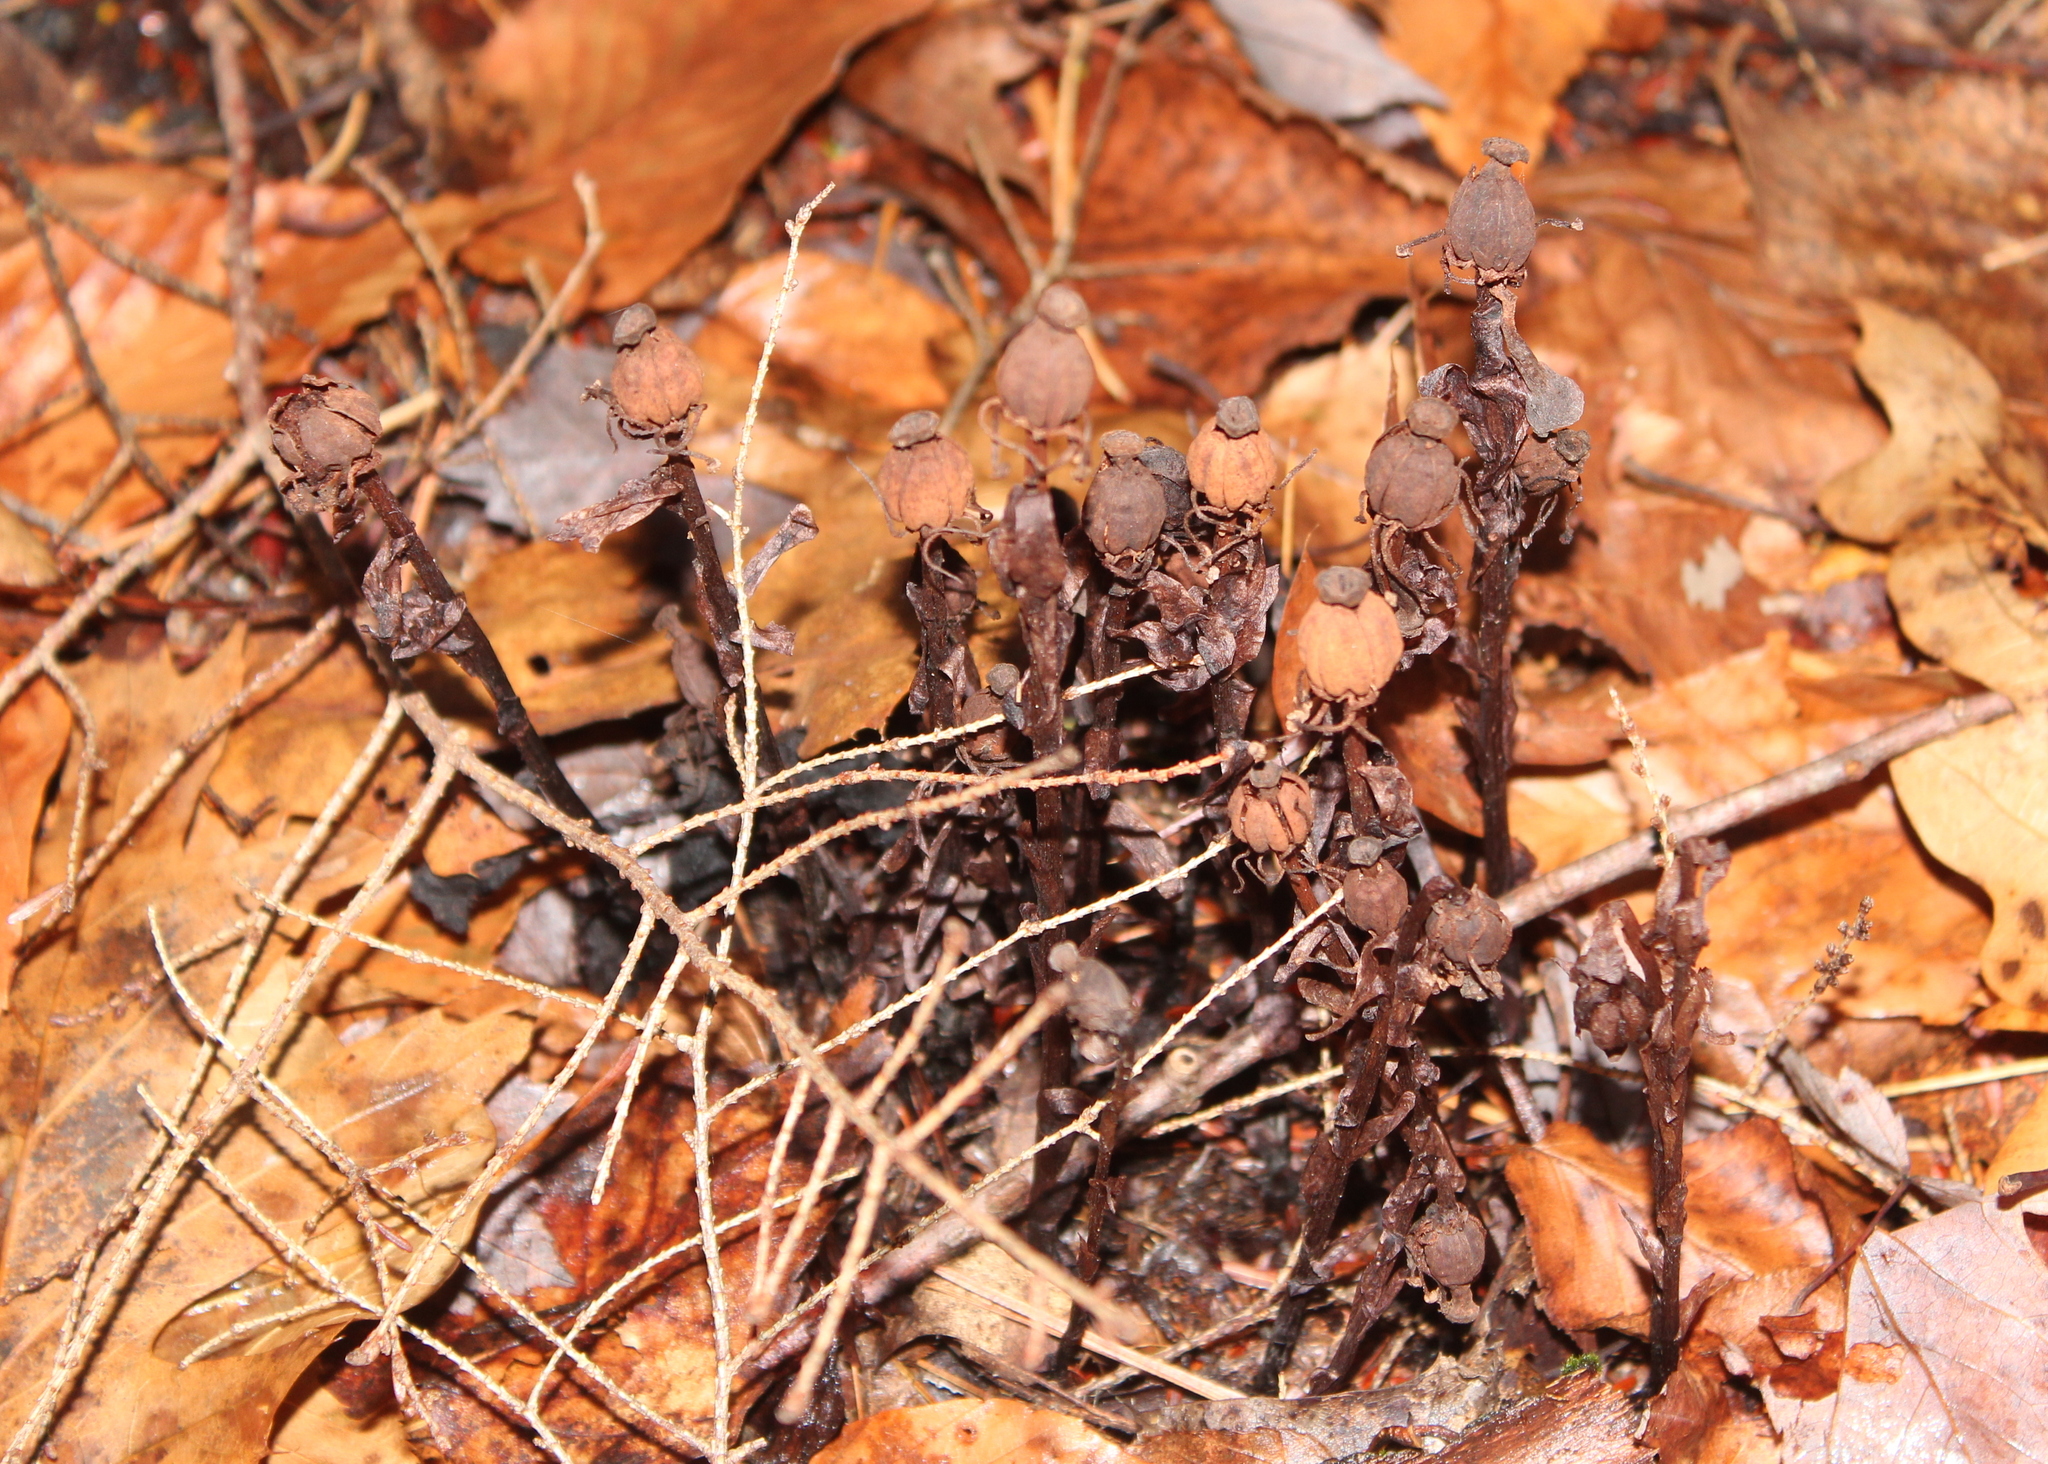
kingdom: Plantae
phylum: Tracheophyta
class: Magnoliopsida
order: Ericales
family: Ericaceae
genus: Monotropa
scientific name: Monotropa uniflora
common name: Convulsion root
